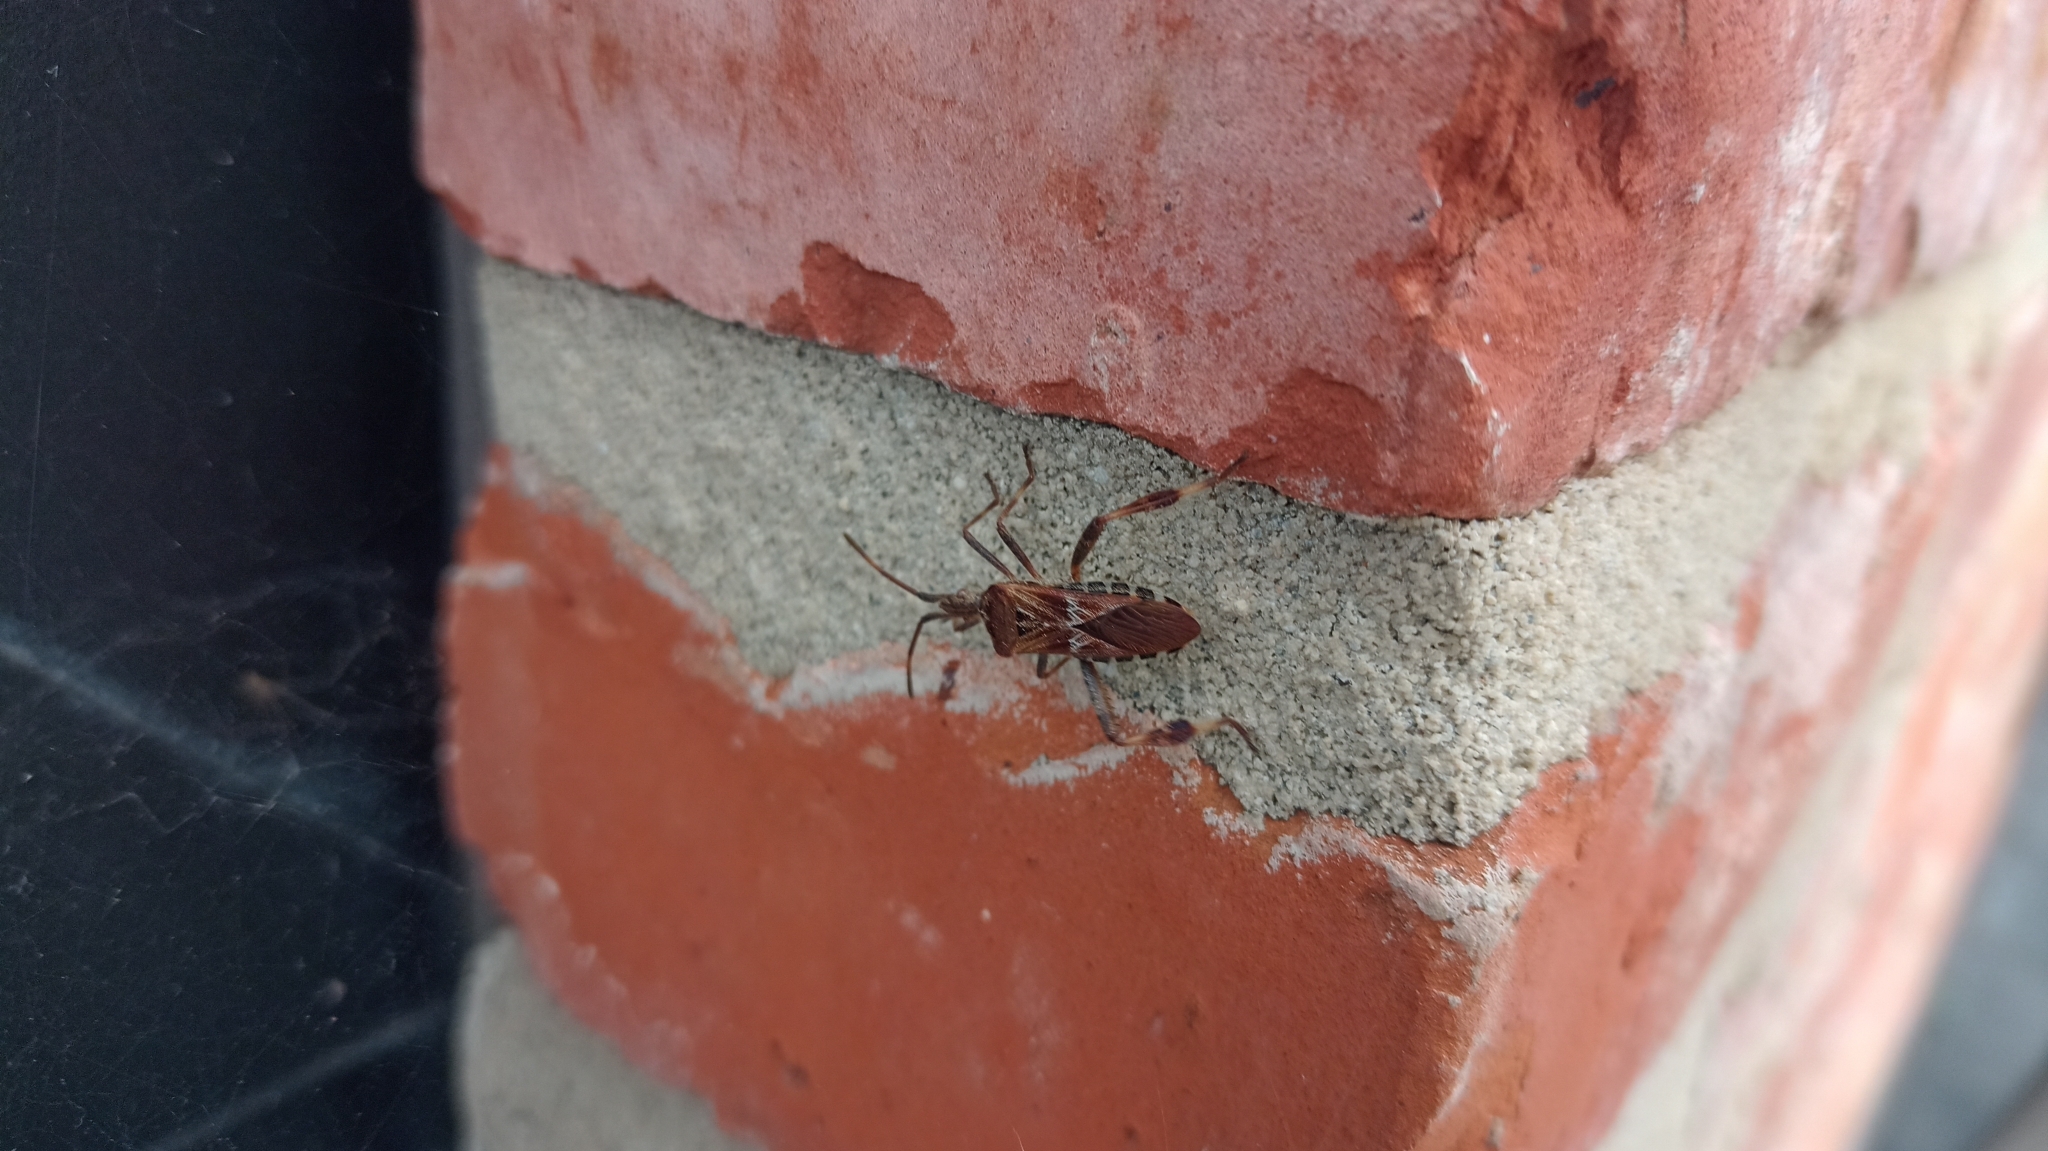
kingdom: Animalia
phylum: Arthropoda
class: Insecta
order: Hemiptera
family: Coreidae
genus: Leptoglossus
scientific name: Leptoglossus occidentalis
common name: Western conifer-seed bug
